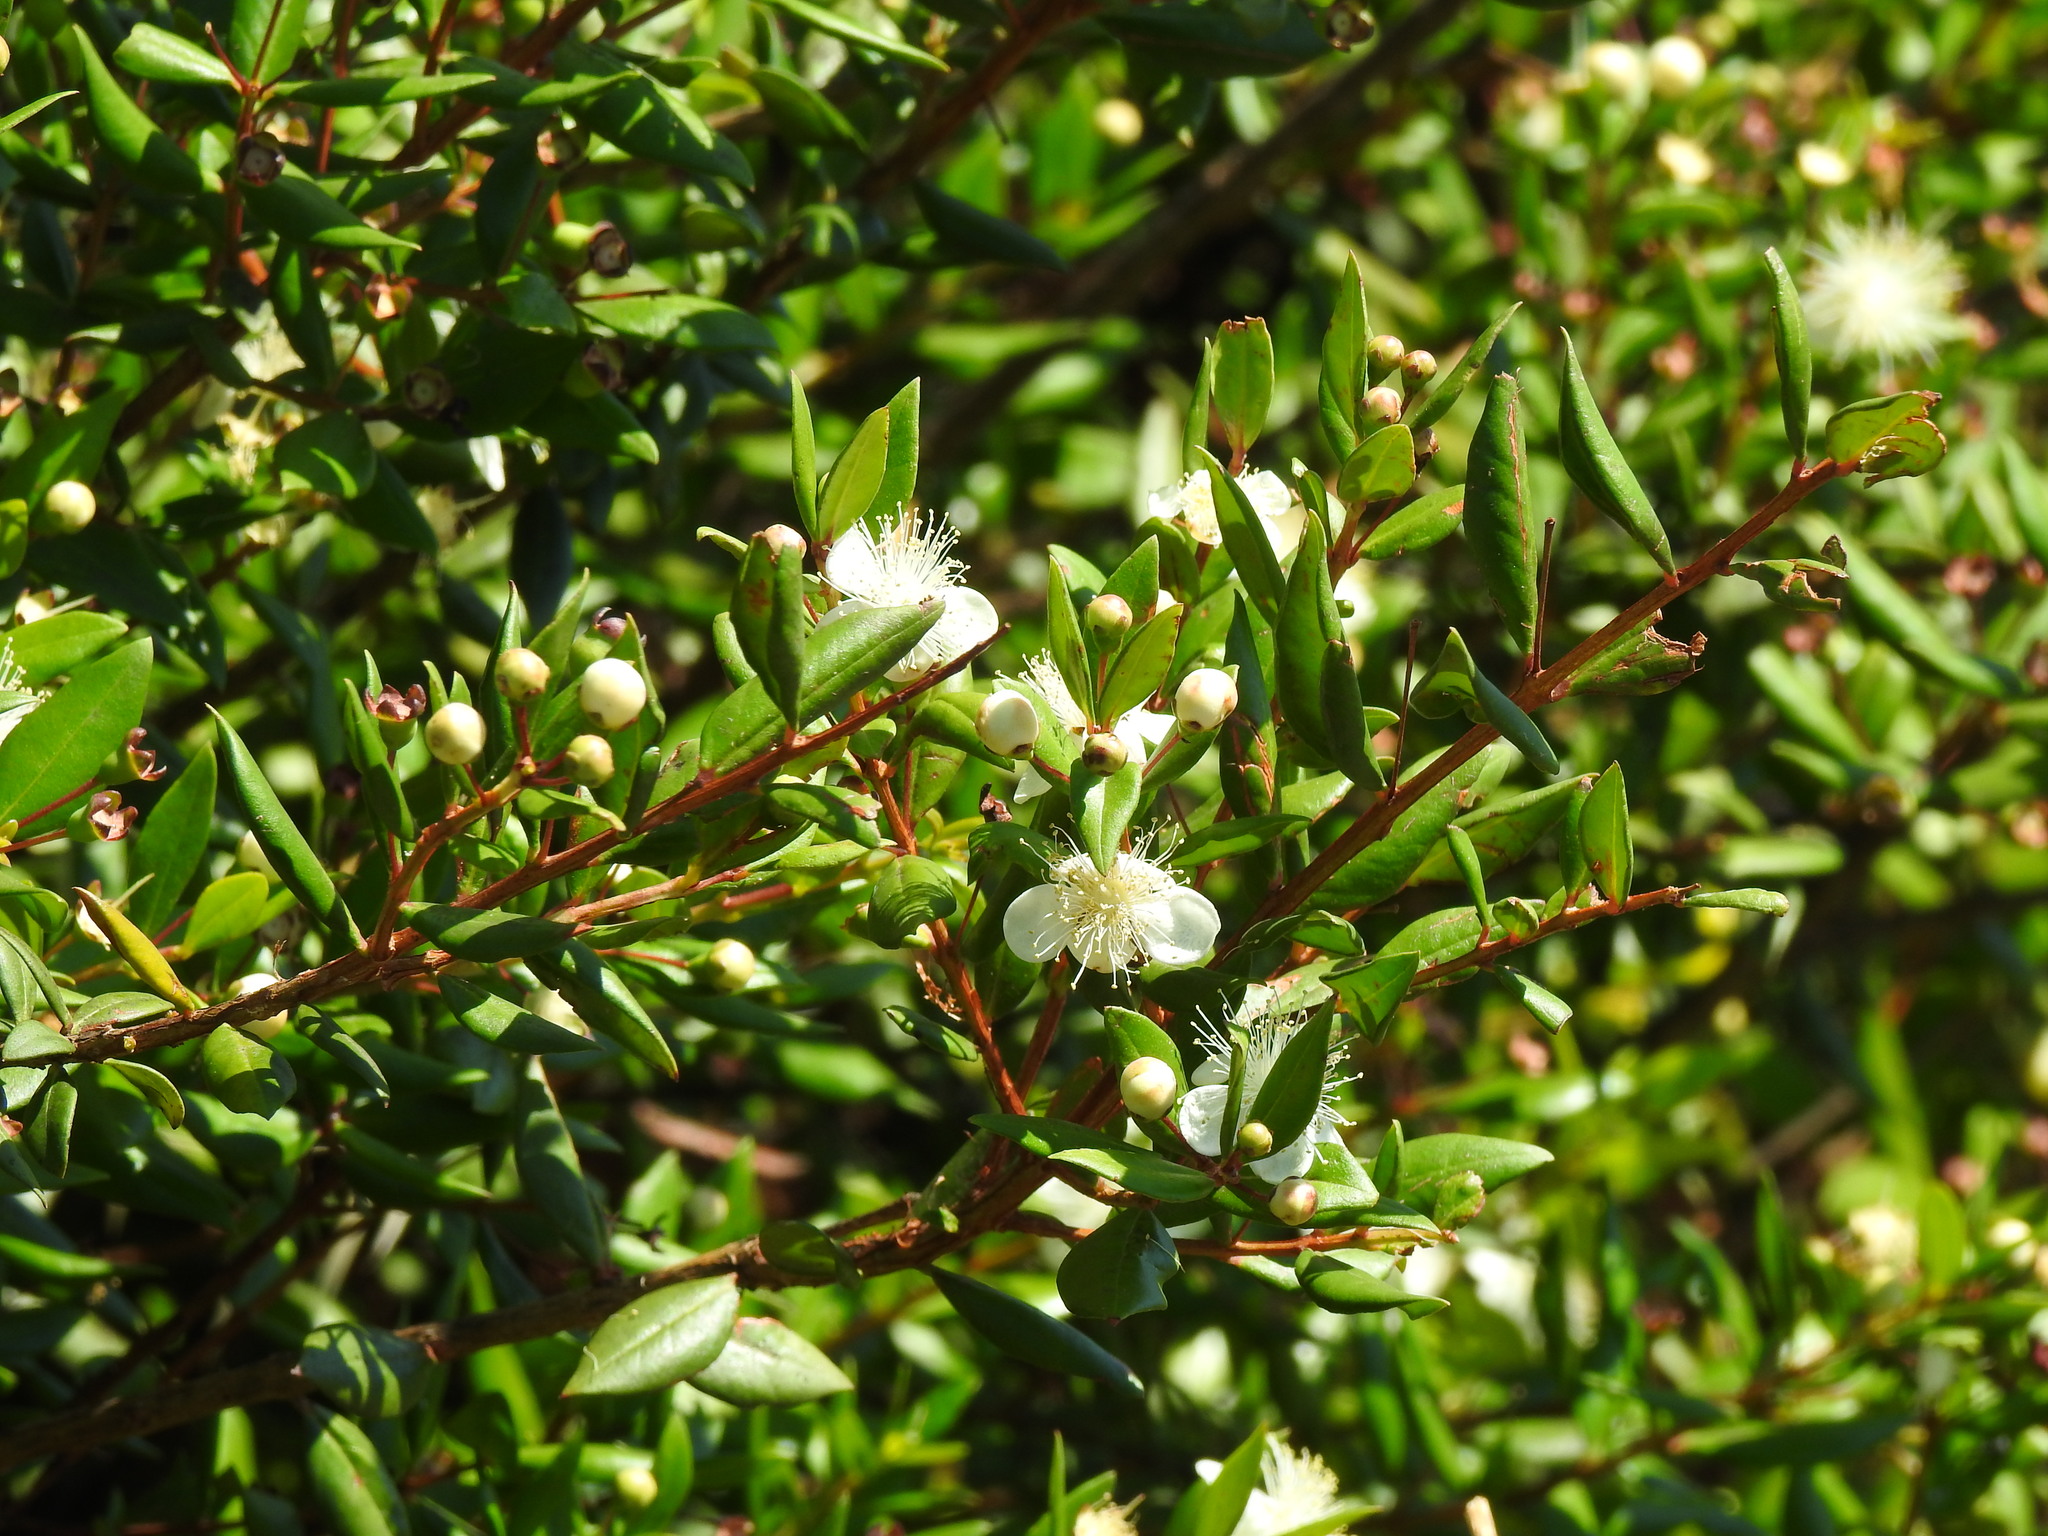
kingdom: Plantae
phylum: Tracheophyta
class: Magnoliopsida
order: Myrtales
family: Myrtaceae
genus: Myrtus
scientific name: Myrtus communis
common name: Myrtle
